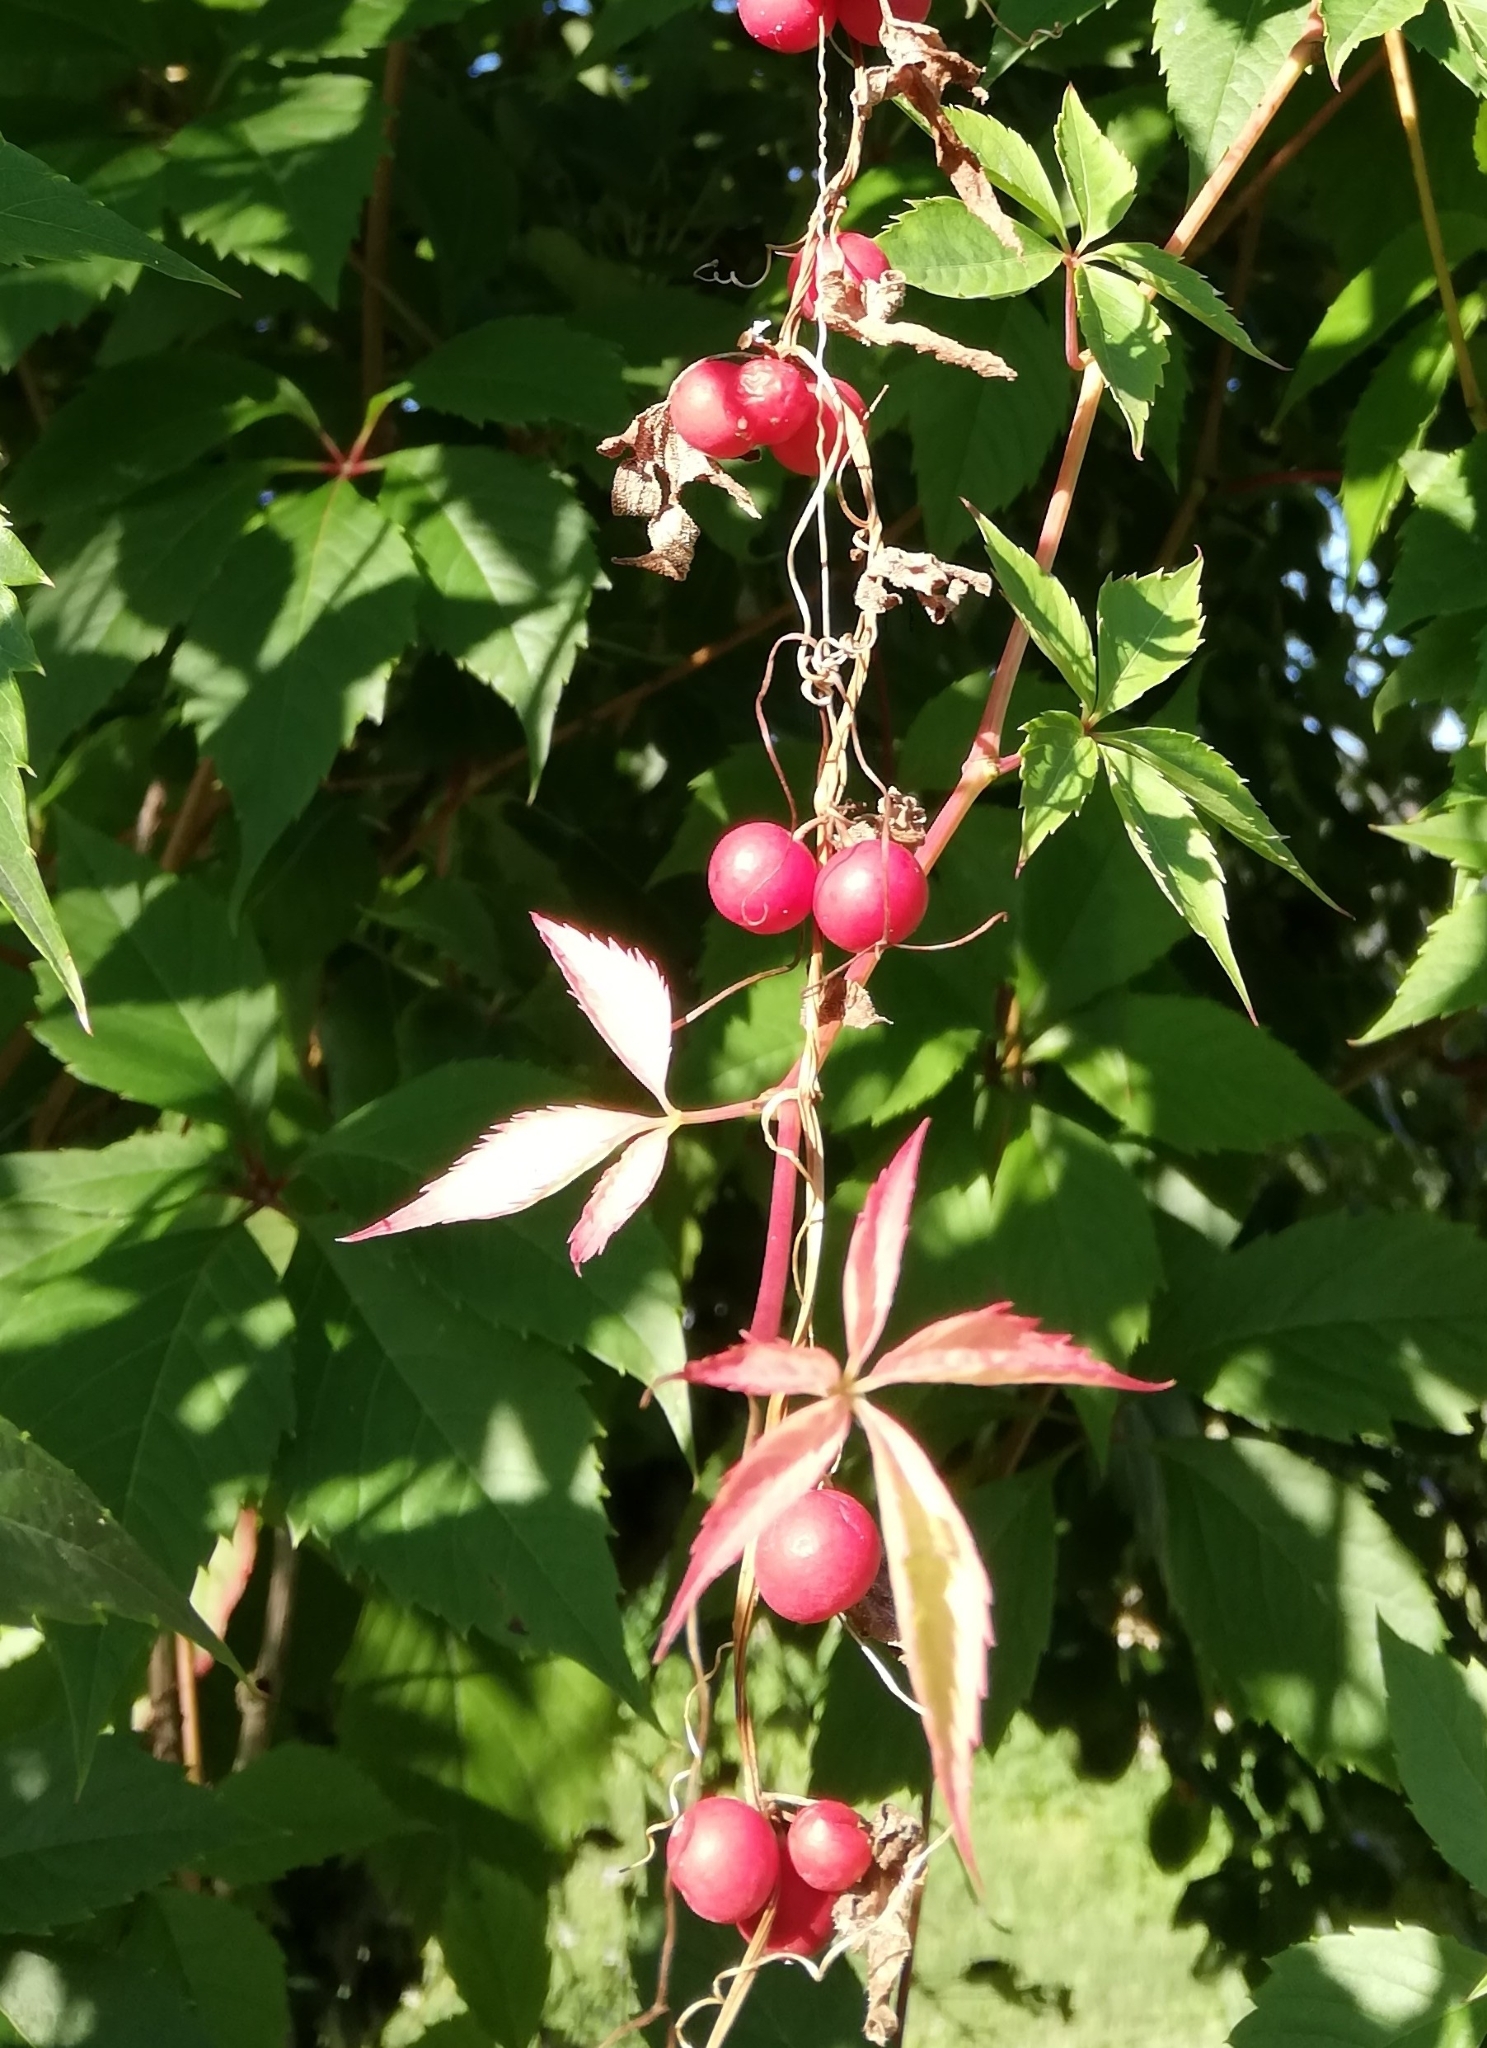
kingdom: Plantae
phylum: Tracheophyta
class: Magnoliopsida
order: Cucurbitales
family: Cucurbitaceae
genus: Bryonia
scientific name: Bryonia dioica
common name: White bryony
